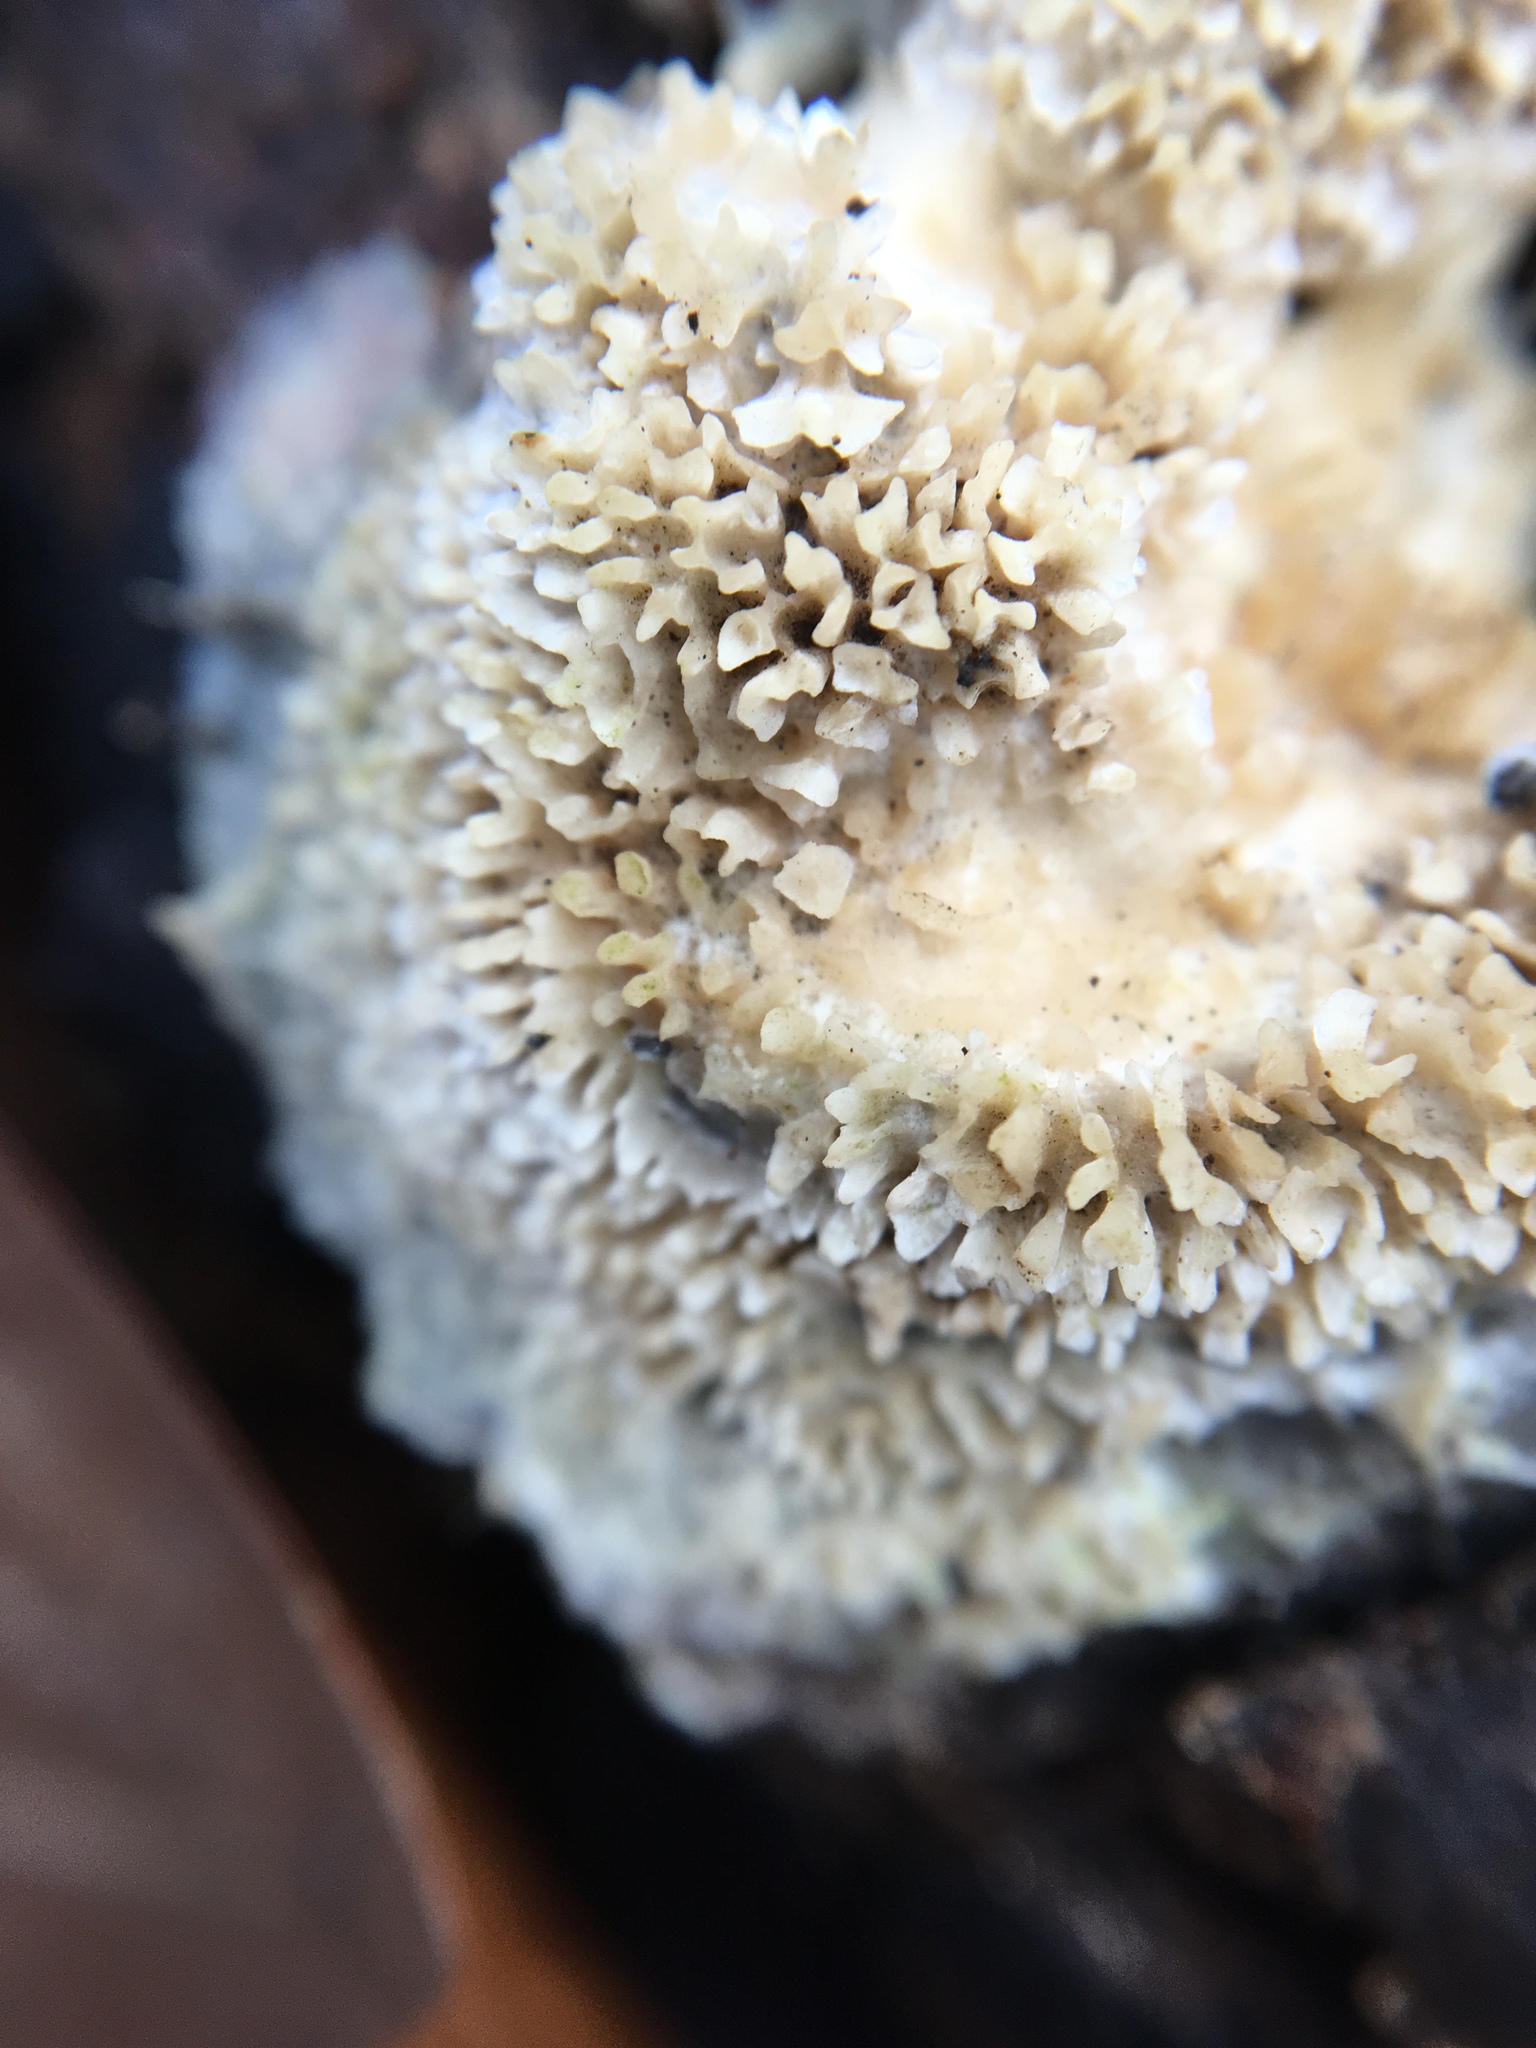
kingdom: Fungi
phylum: Basidiomycota
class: Agaricomycetes
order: Polyporales
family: Meruliaceae
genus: Phlebia
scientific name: Phlebia tremellosa
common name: Jelly rot
